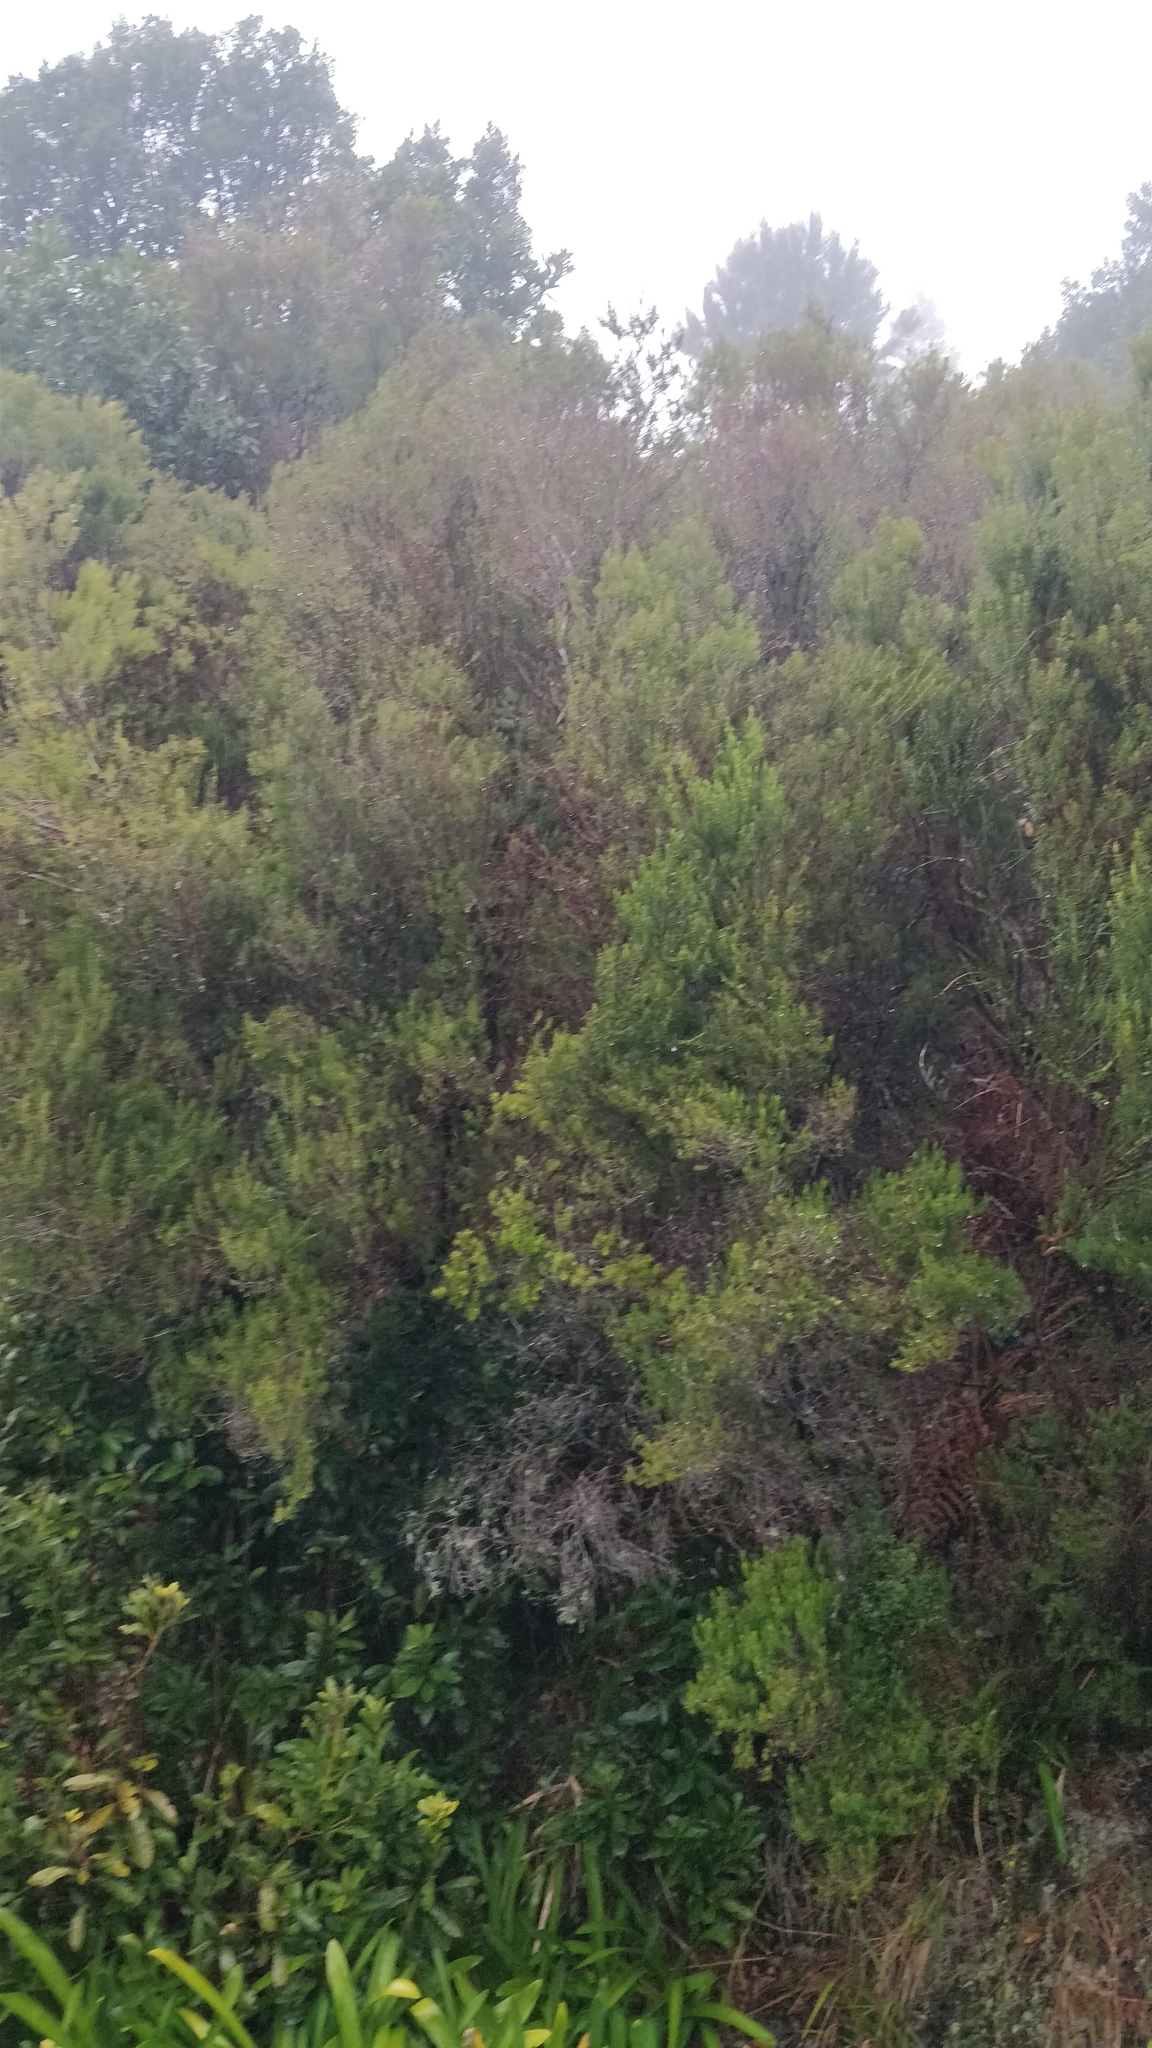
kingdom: Plantae
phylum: Tracheophyta
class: Magnoliopsida
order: Ericales
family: Ericaceae
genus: Erica
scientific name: Erica platycodon
